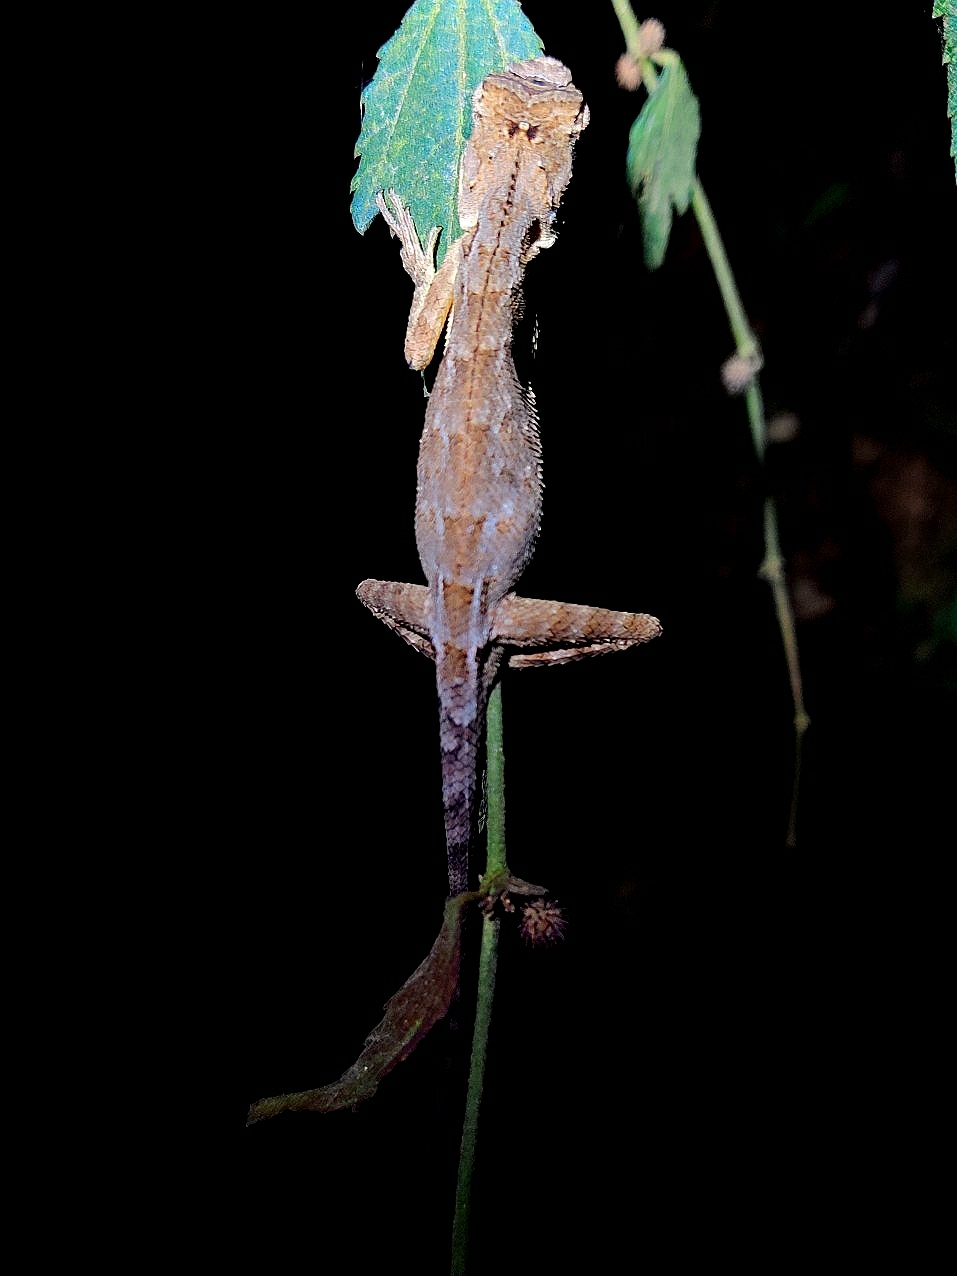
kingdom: Animalia
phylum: Chordata
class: Squamata
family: Agamidae
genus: Monilesaurus
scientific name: Monilesaurus rouxii
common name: Roux's forest lizard
